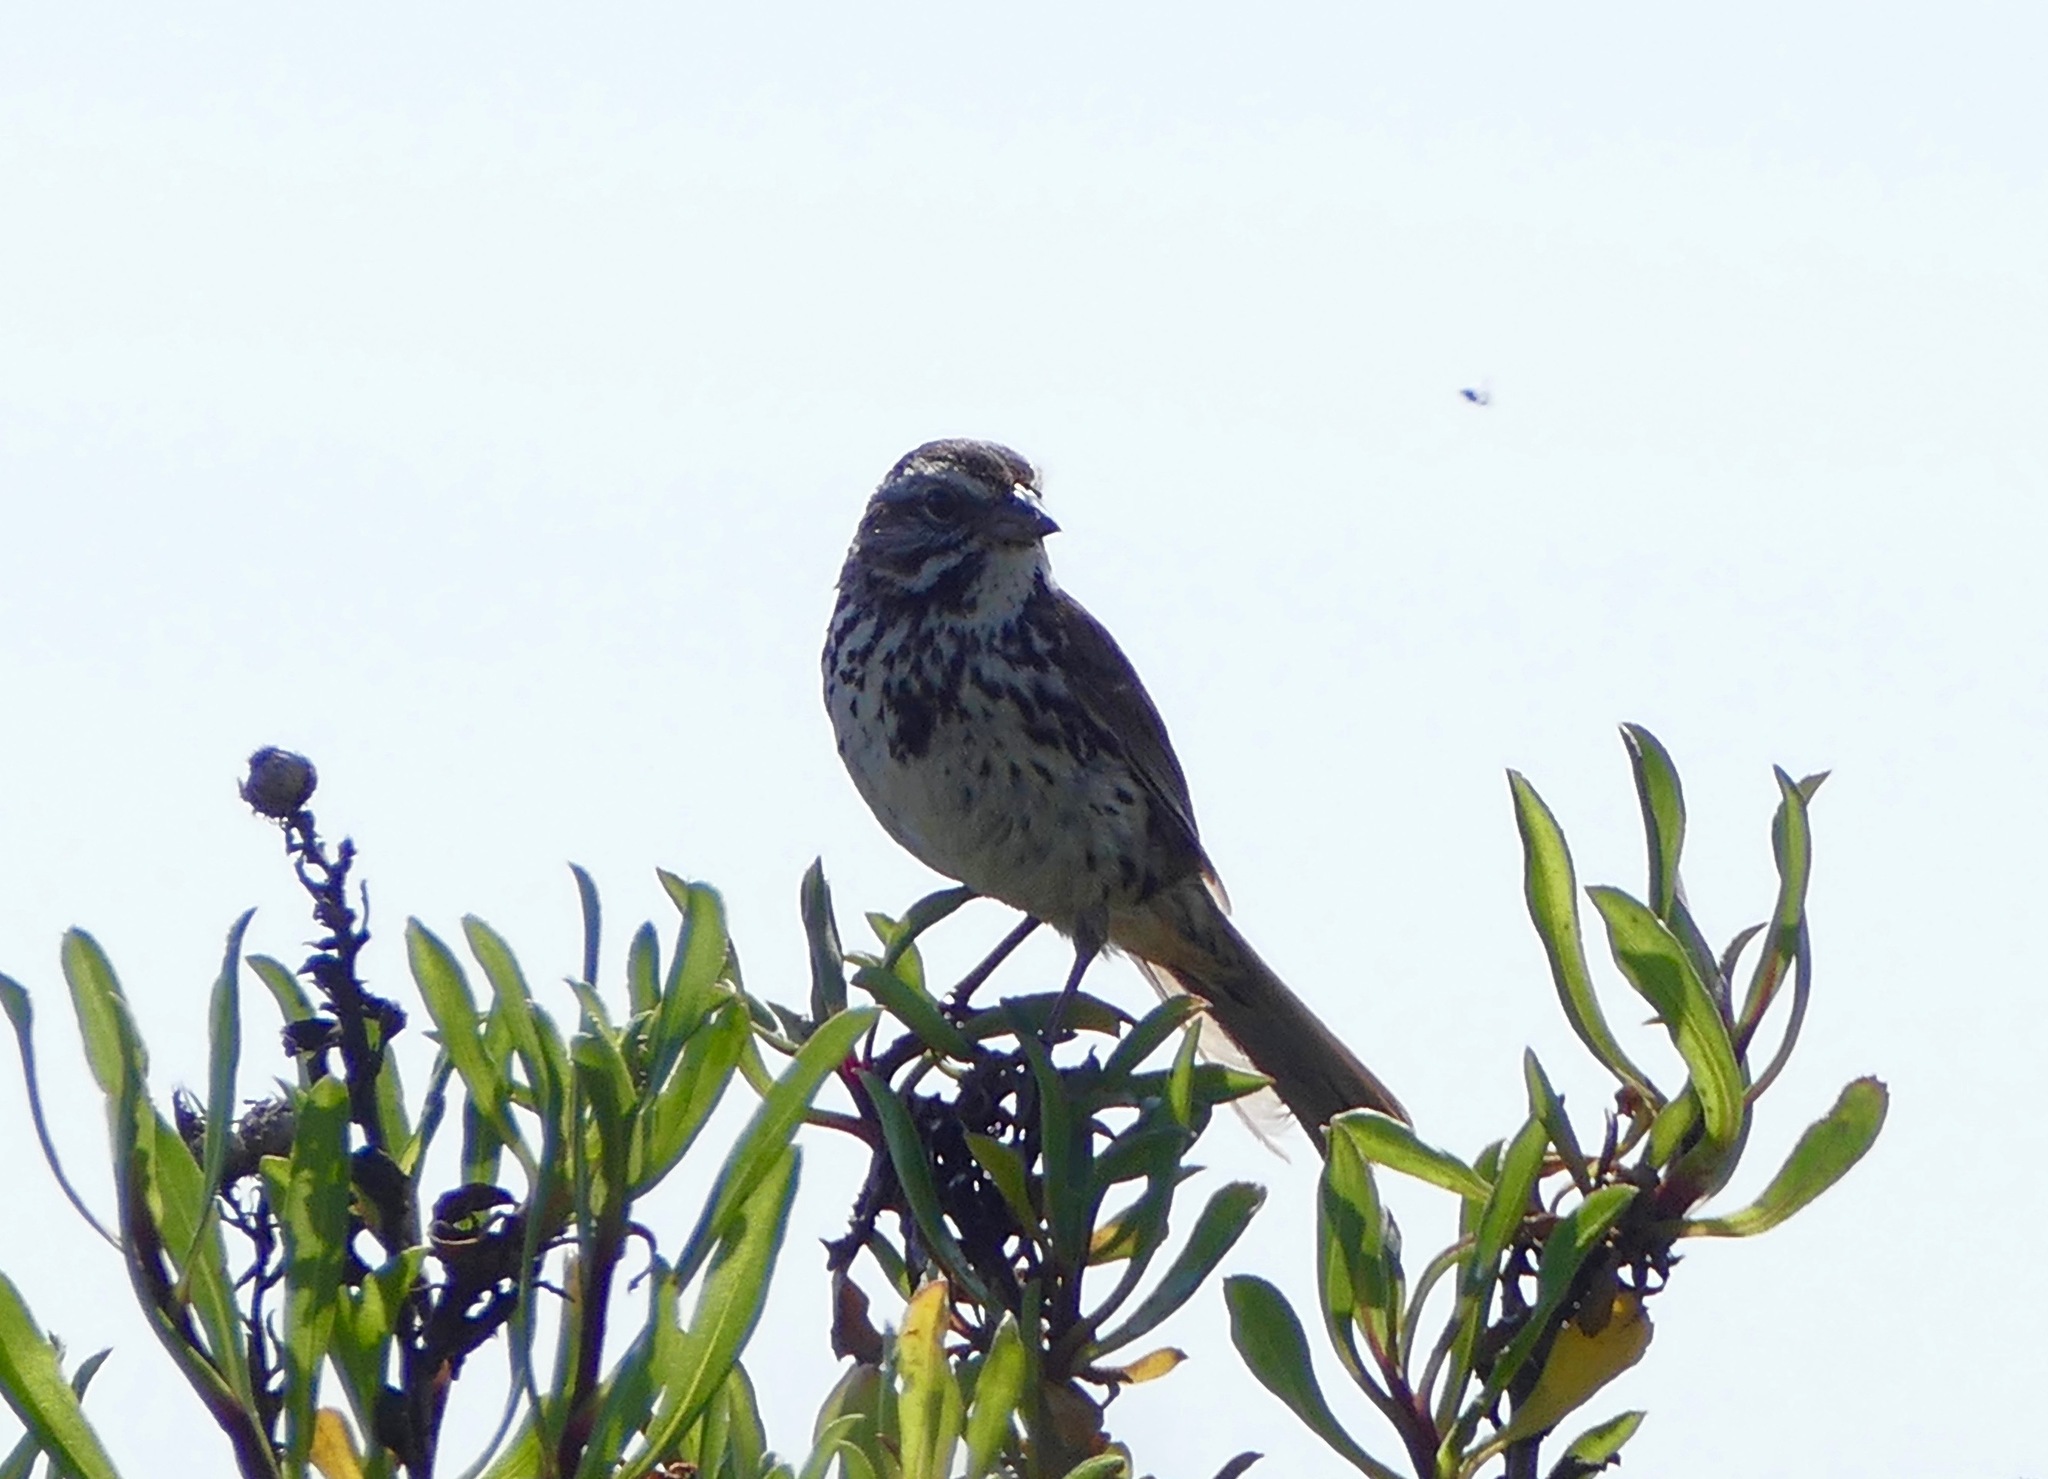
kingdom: Animalia
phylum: Chordata
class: Aves
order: Passeriformes
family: Passerellidae
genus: Melospiza
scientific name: Melospiza melodia
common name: Song sparrow
